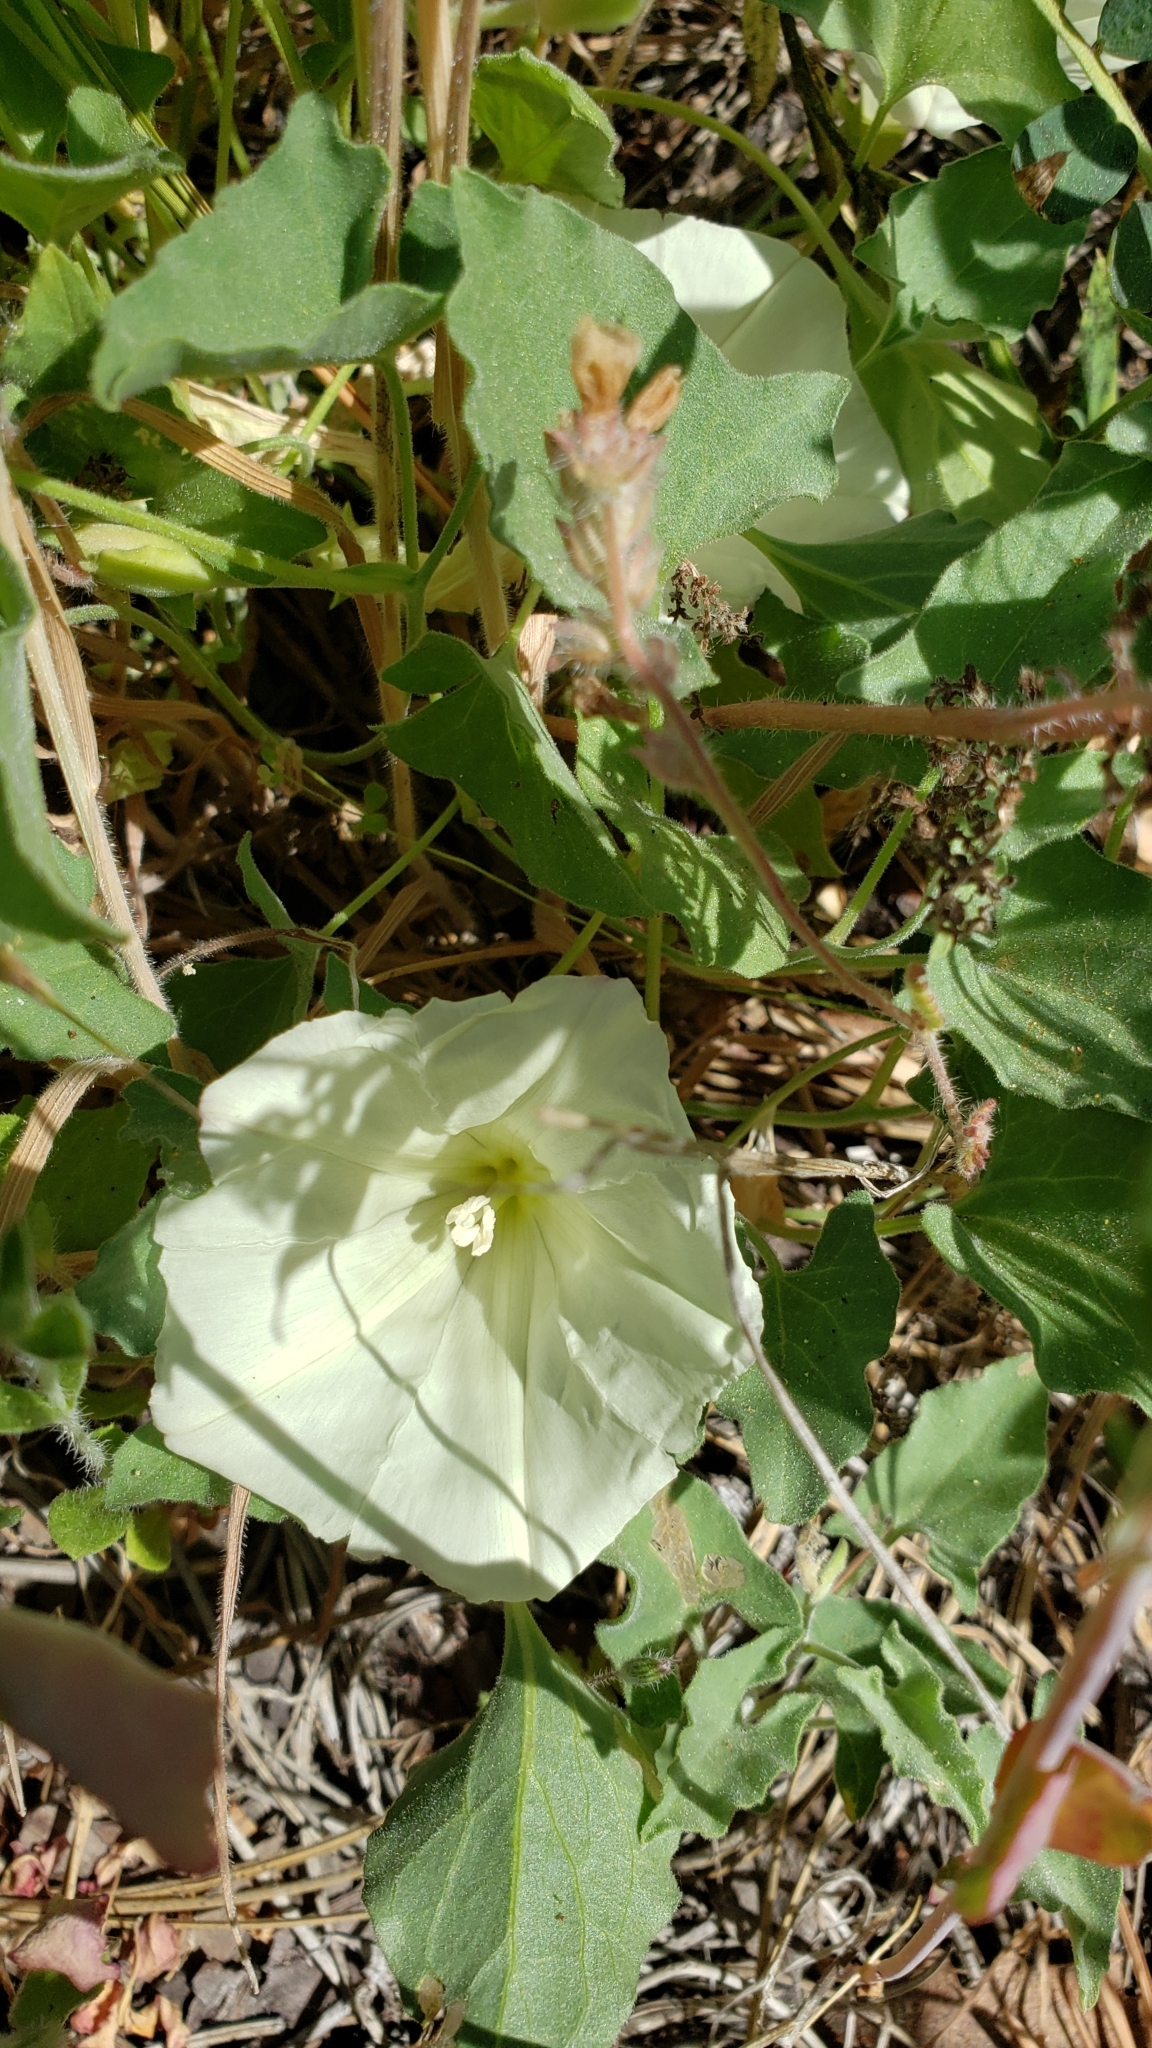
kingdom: Plantae
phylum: Tracheophyta
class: Magnoliopsida
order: Solanales
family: Convolvulaceae
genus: Calystegia
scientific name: Calystegia collina
